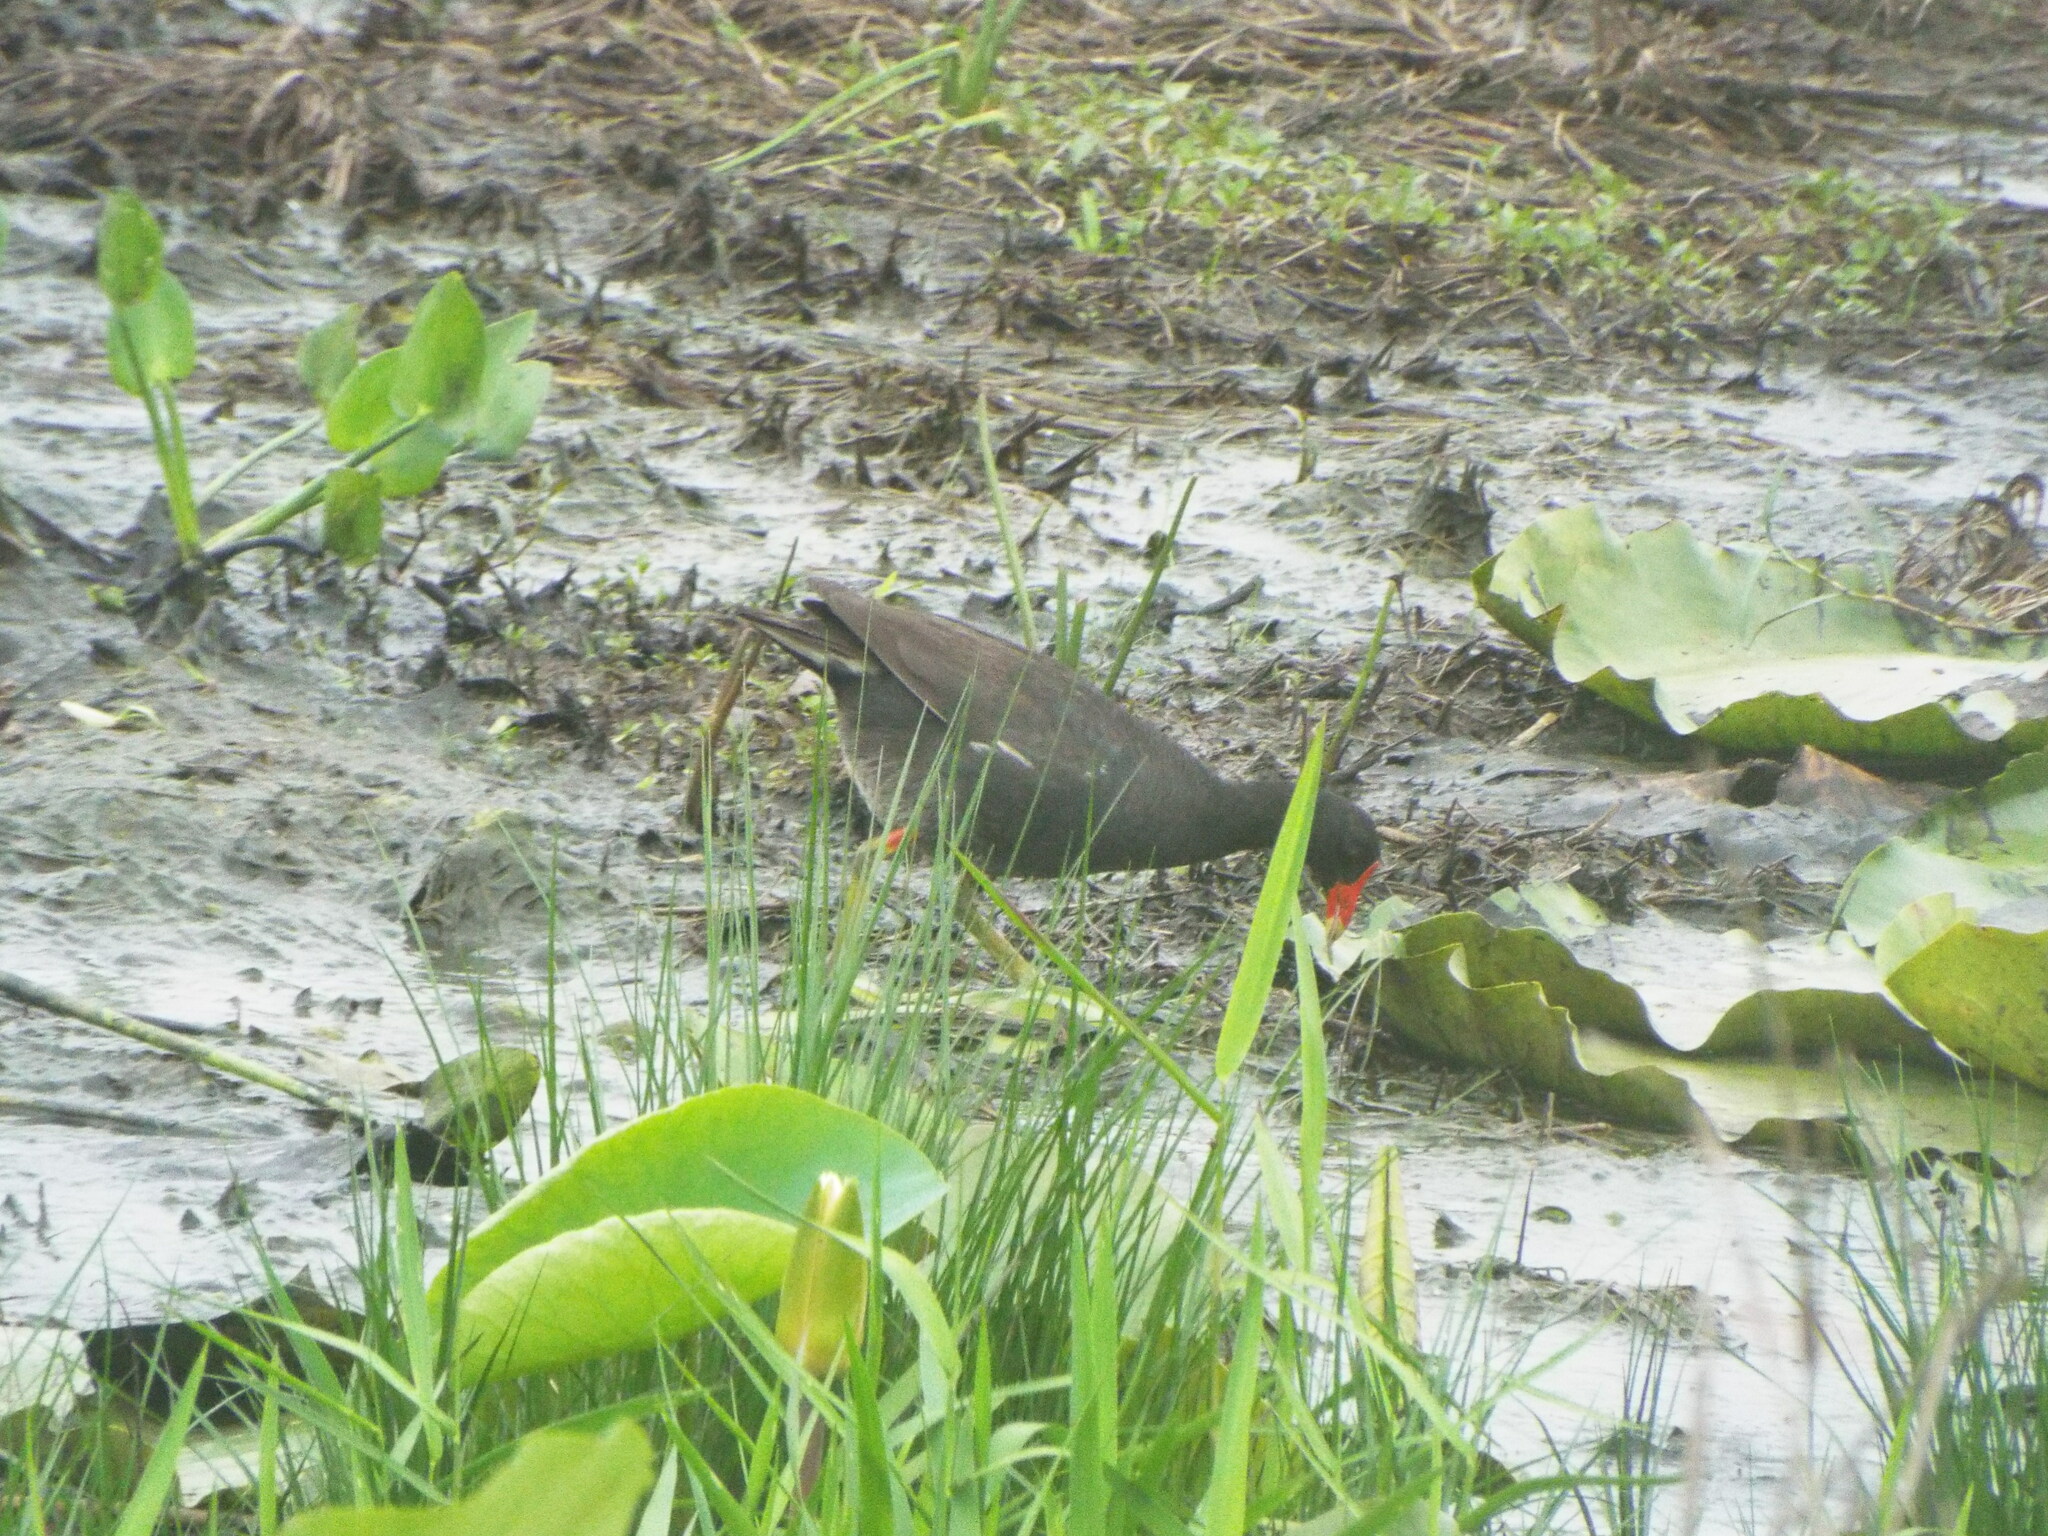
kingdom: Animalia
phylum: Chordata
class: Aves
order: Gruiformes
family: Rallidae
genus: Gallinula
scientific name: Gallinula chloropus
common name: Common moorhen
